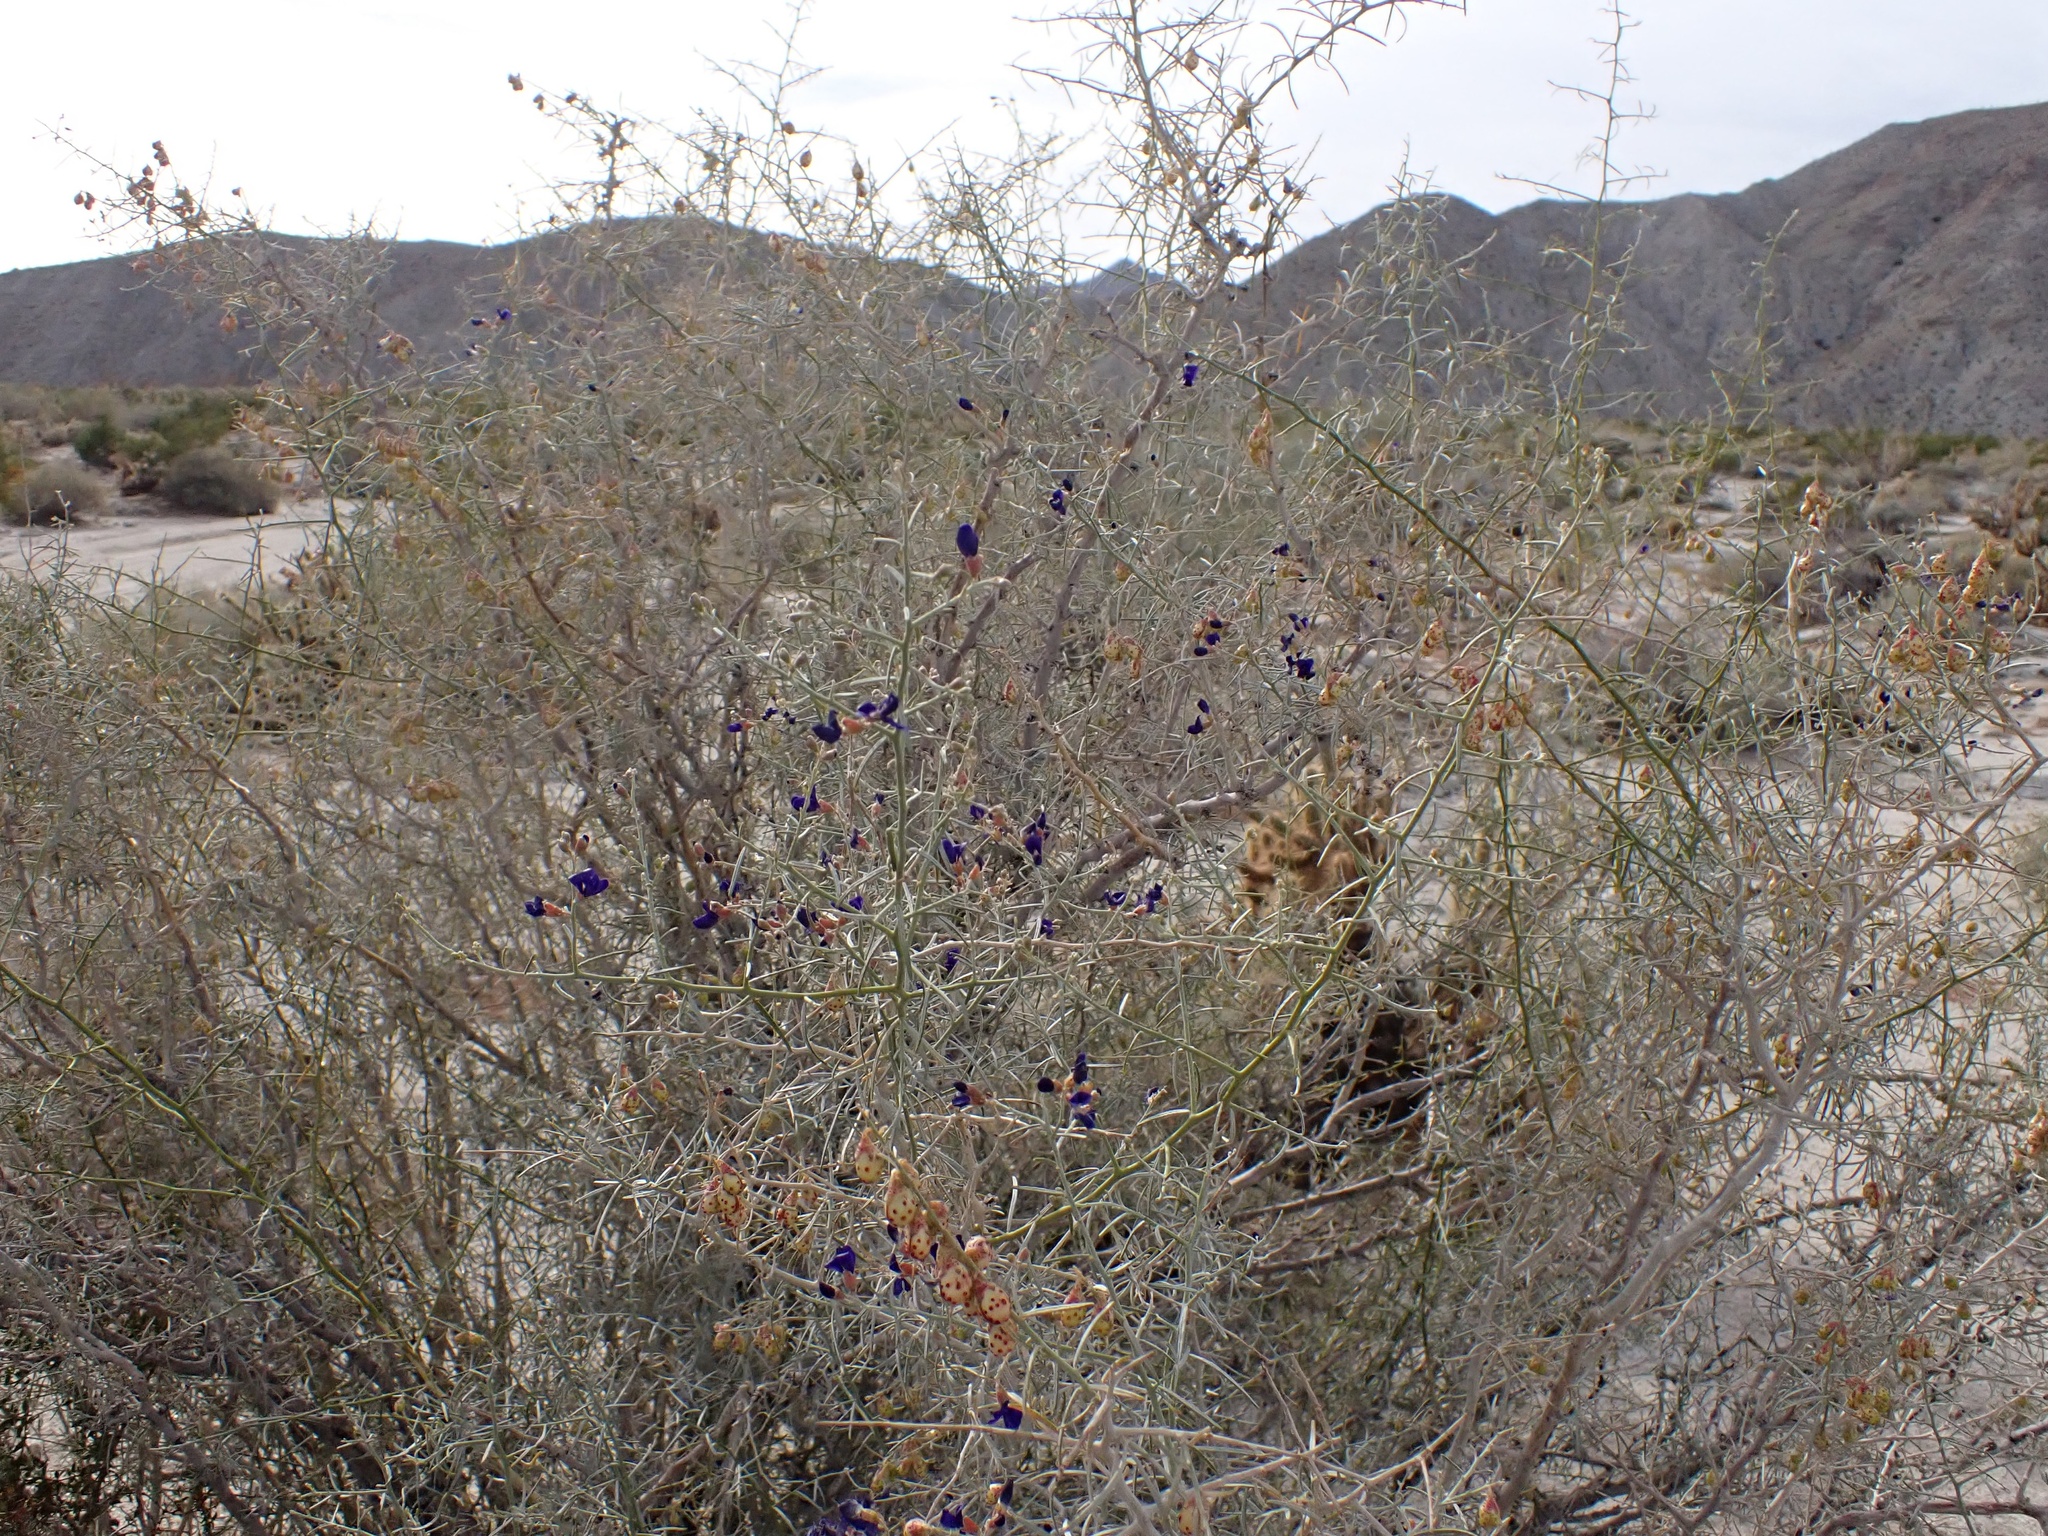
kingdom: Plantae
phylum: Tracheophyta
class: Magnoliopsida
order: Fabales
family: Fabaceae
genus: Psorothamnus
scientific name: Psorothamnus schottii
